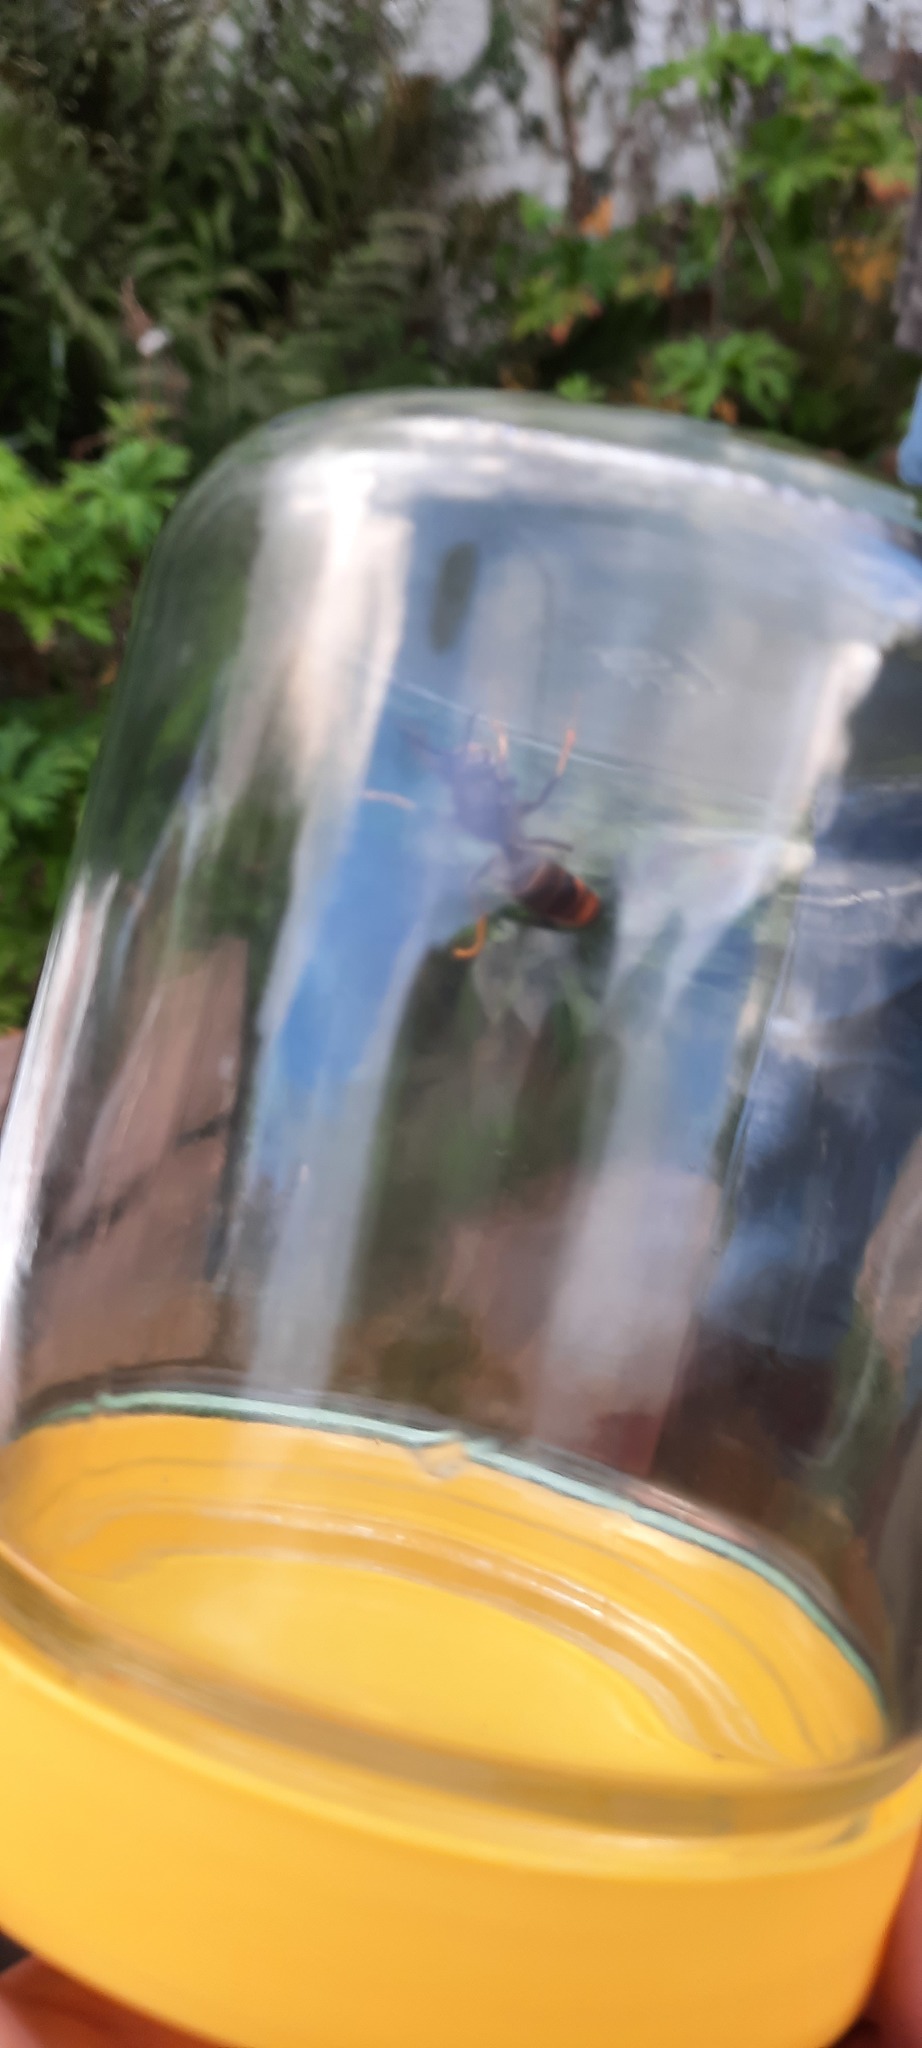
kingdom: Animalia
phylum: Arthropoda
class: Insecta
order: Hymenoptera
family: Vespidae
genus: Vespa
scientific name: Vespa velutina
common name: Asian hornet
